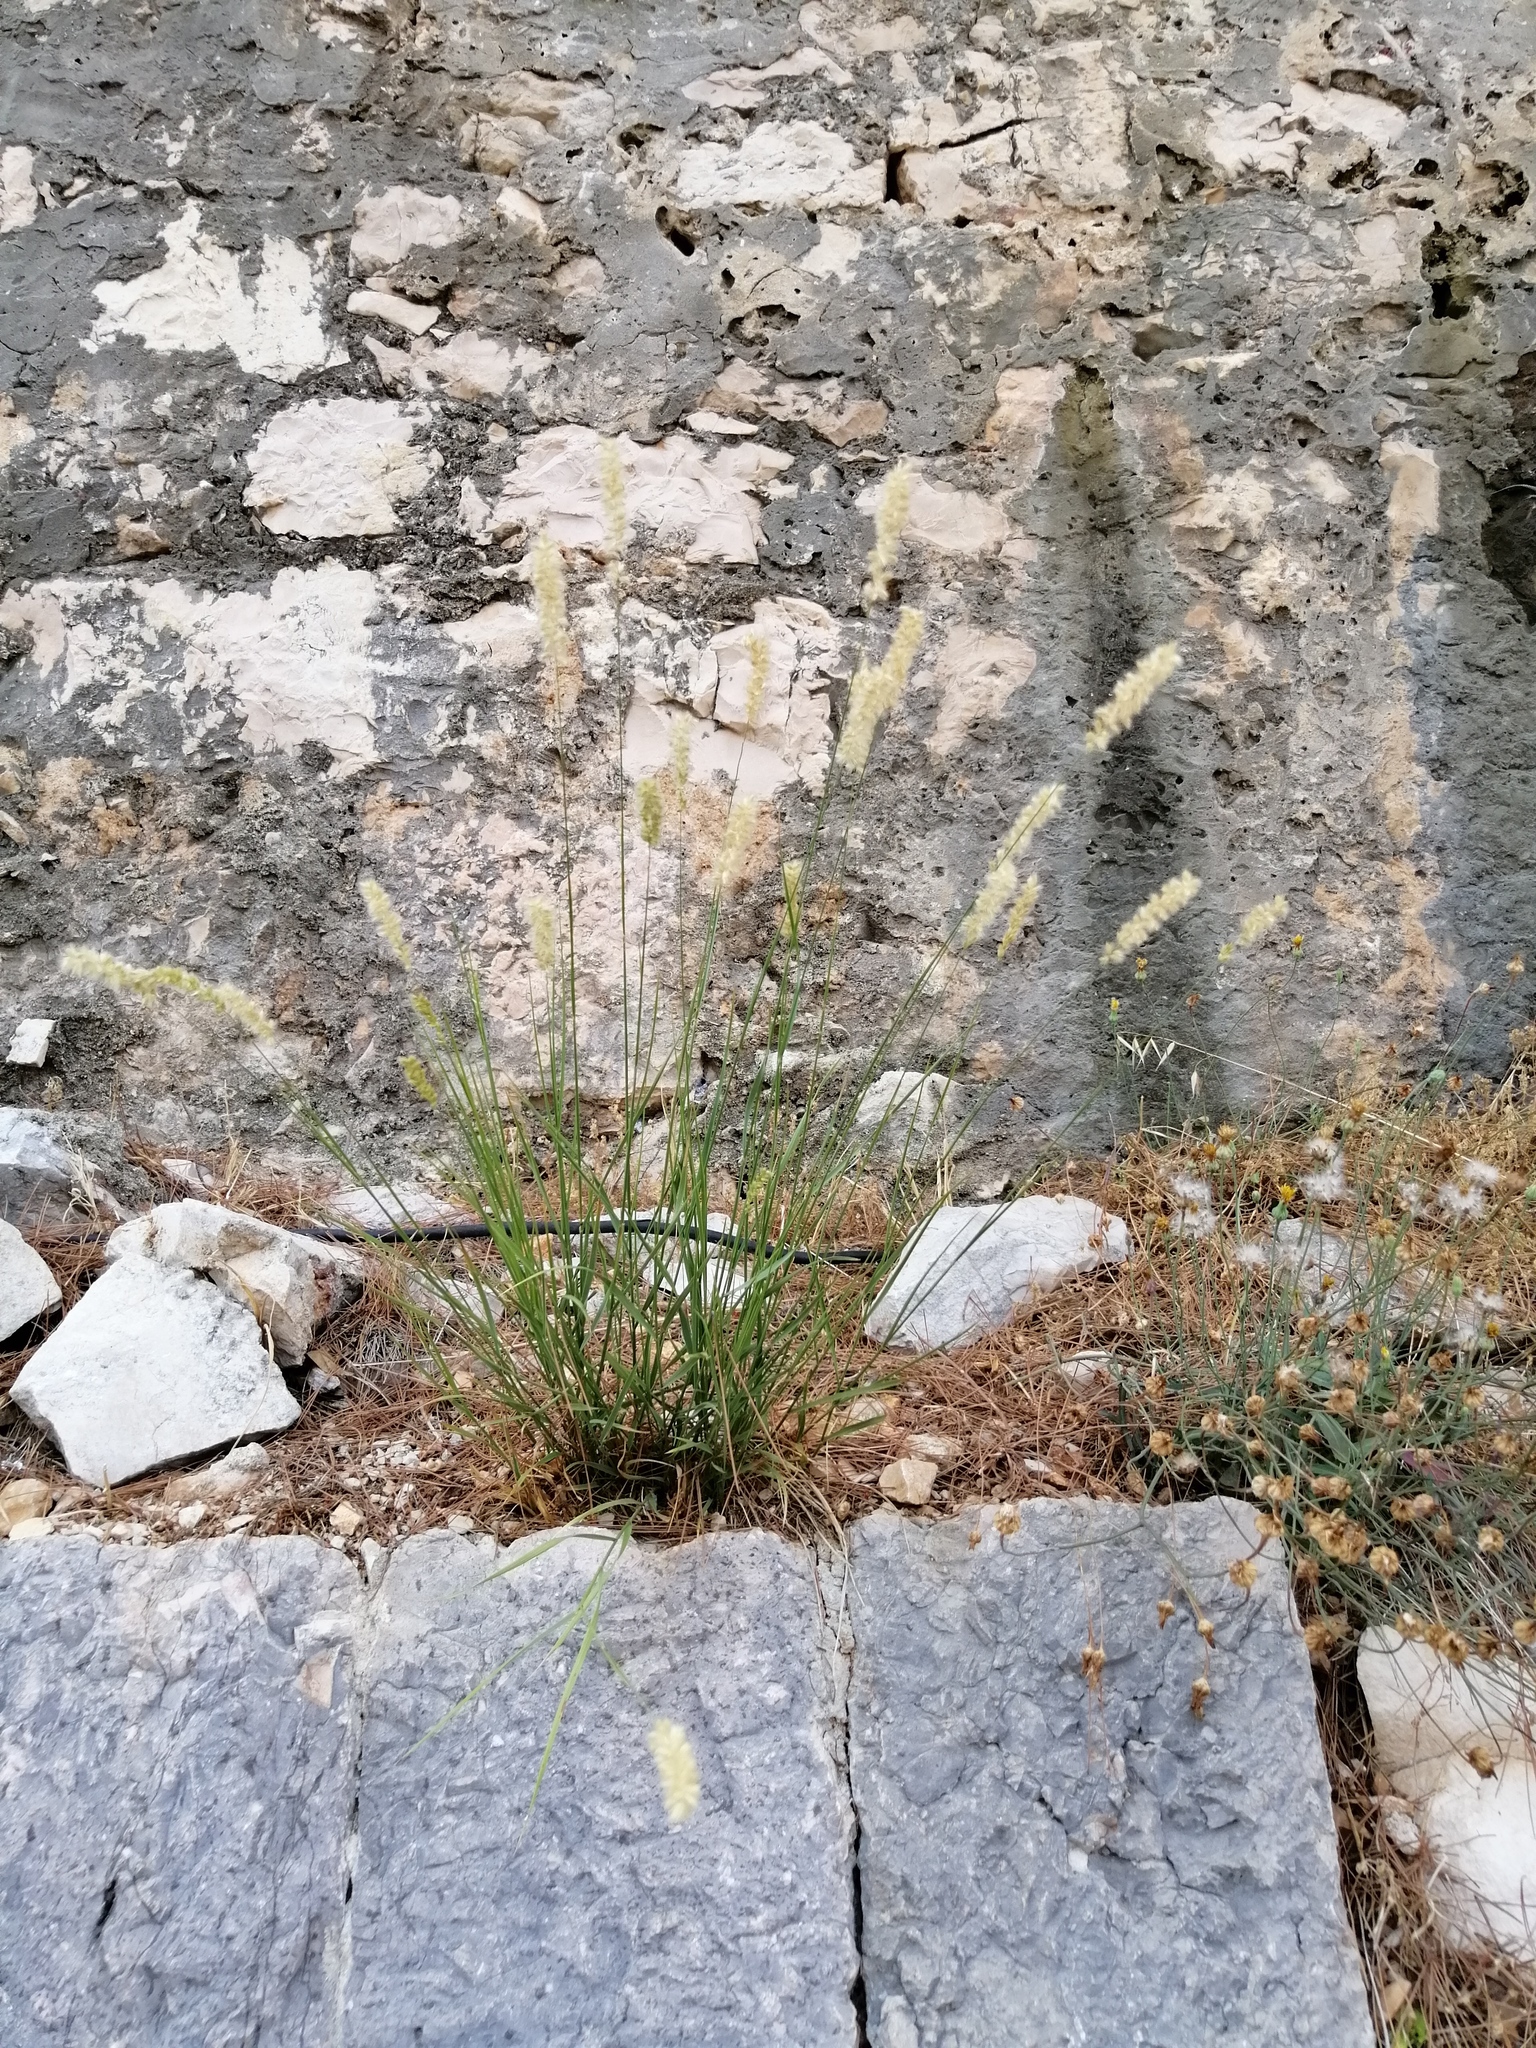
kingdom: Plantae
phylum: Tracheophyta
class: Liliopsida
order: Poales
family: Poaceae
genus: Melica
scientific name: Melica ciliata
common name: Hairy melicgrass
